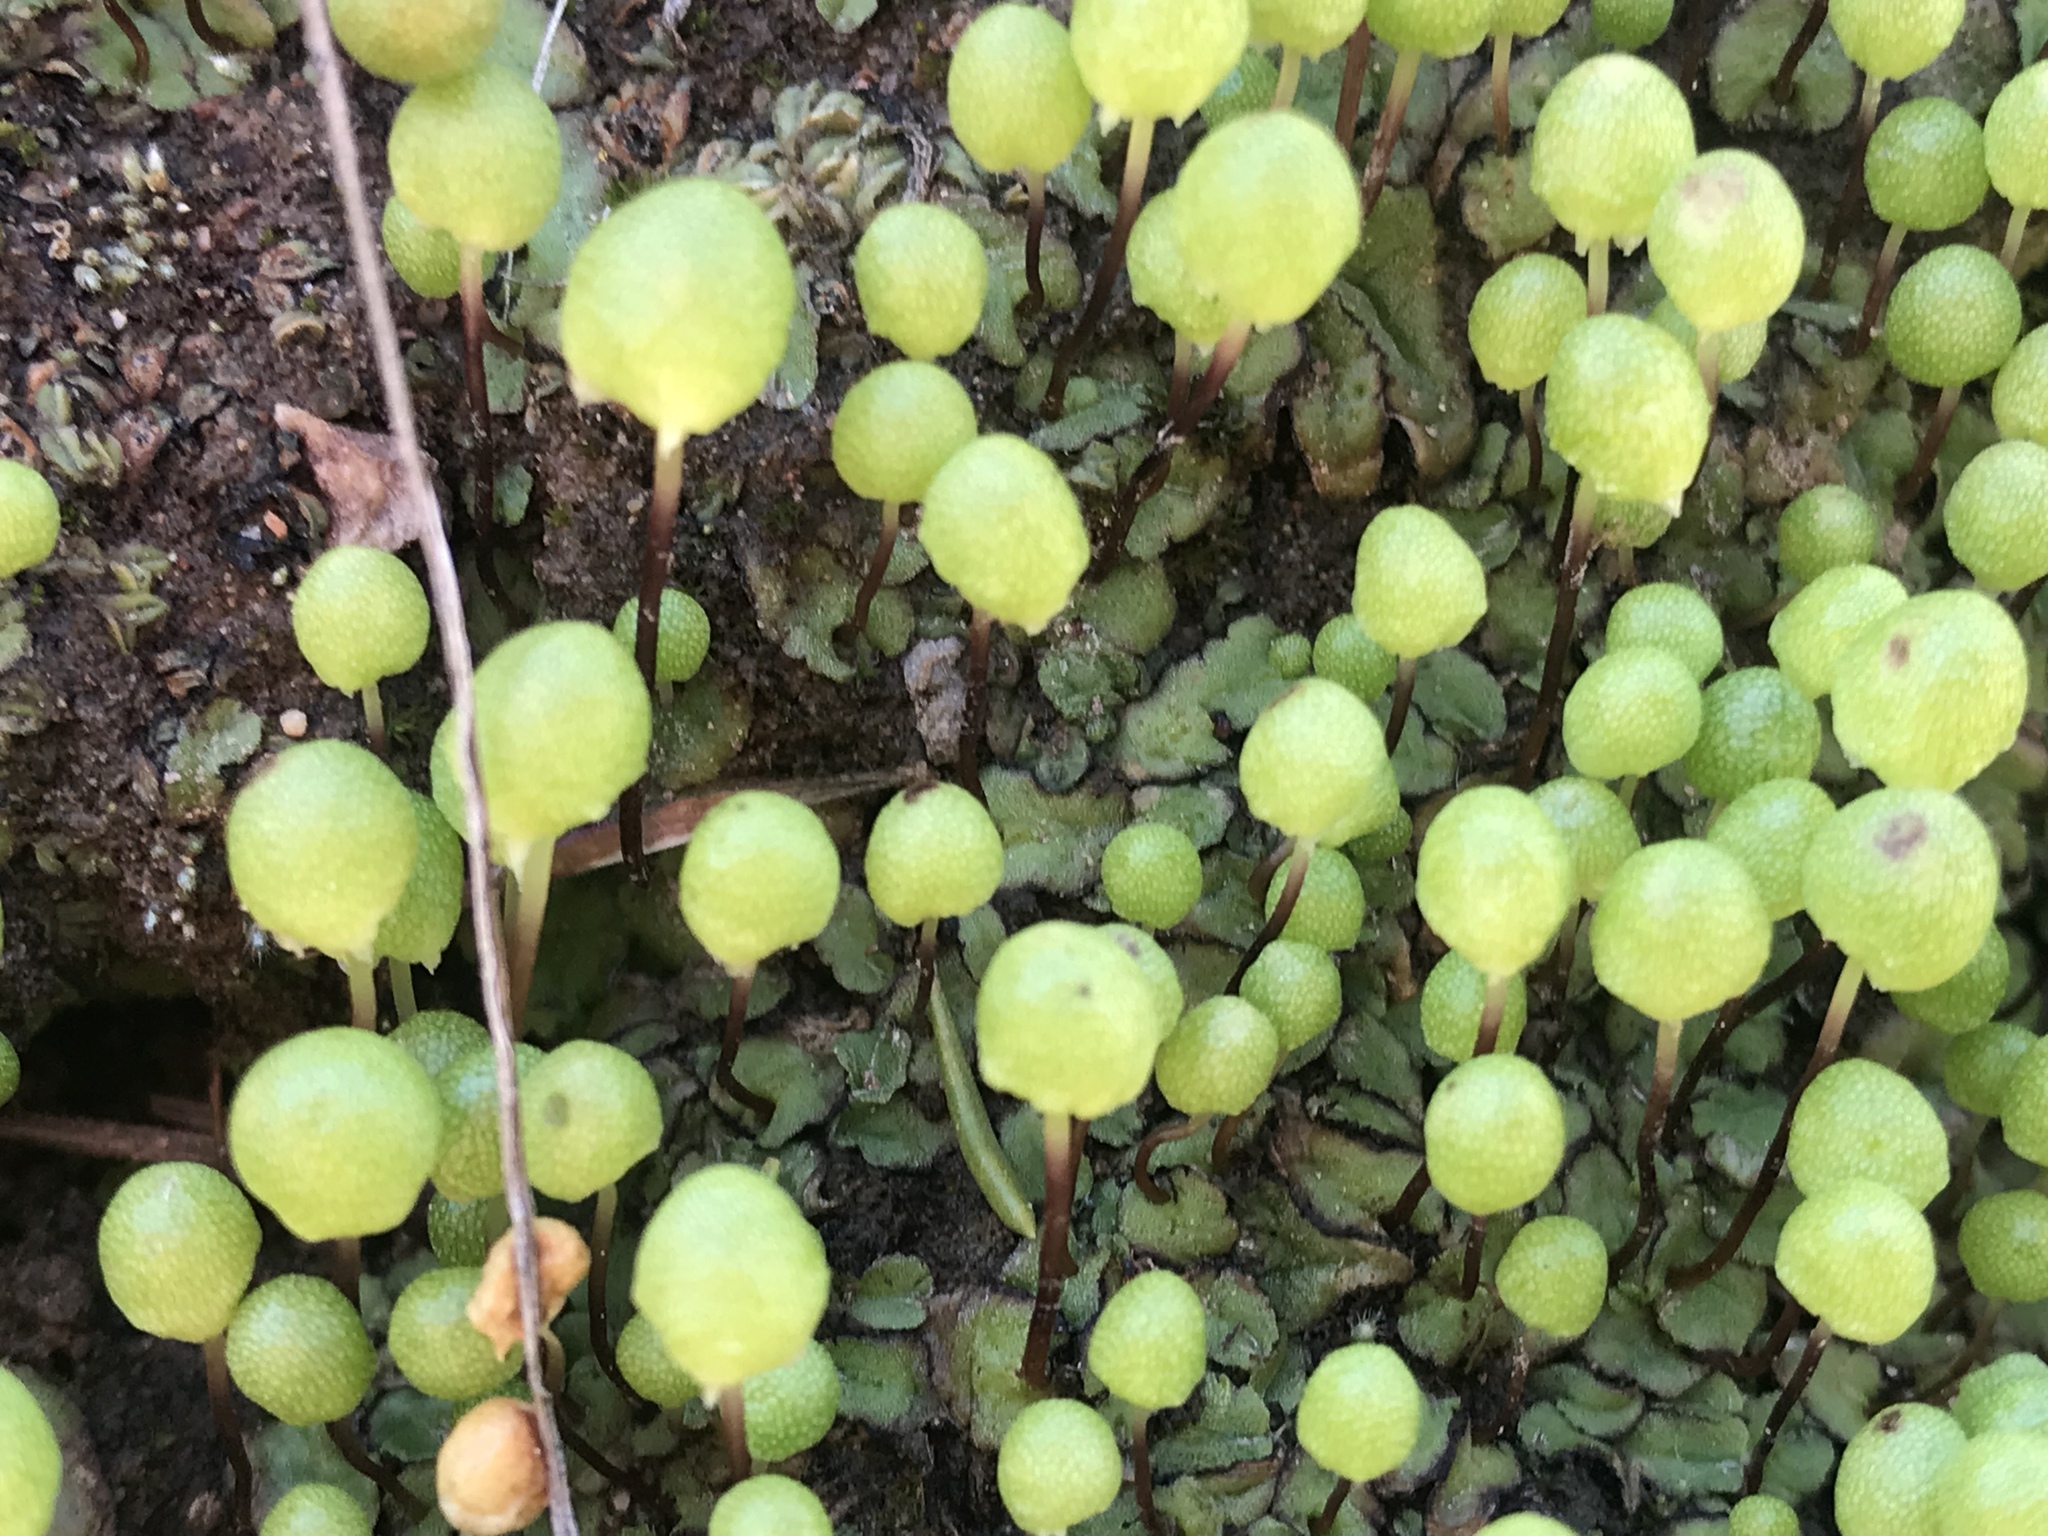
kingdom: Plantae
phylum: Marchantiophyta
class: Marchantiopsida
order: Marchantiales
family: Aytoniaceae
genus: Asterella
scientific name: Asterella palmeri
